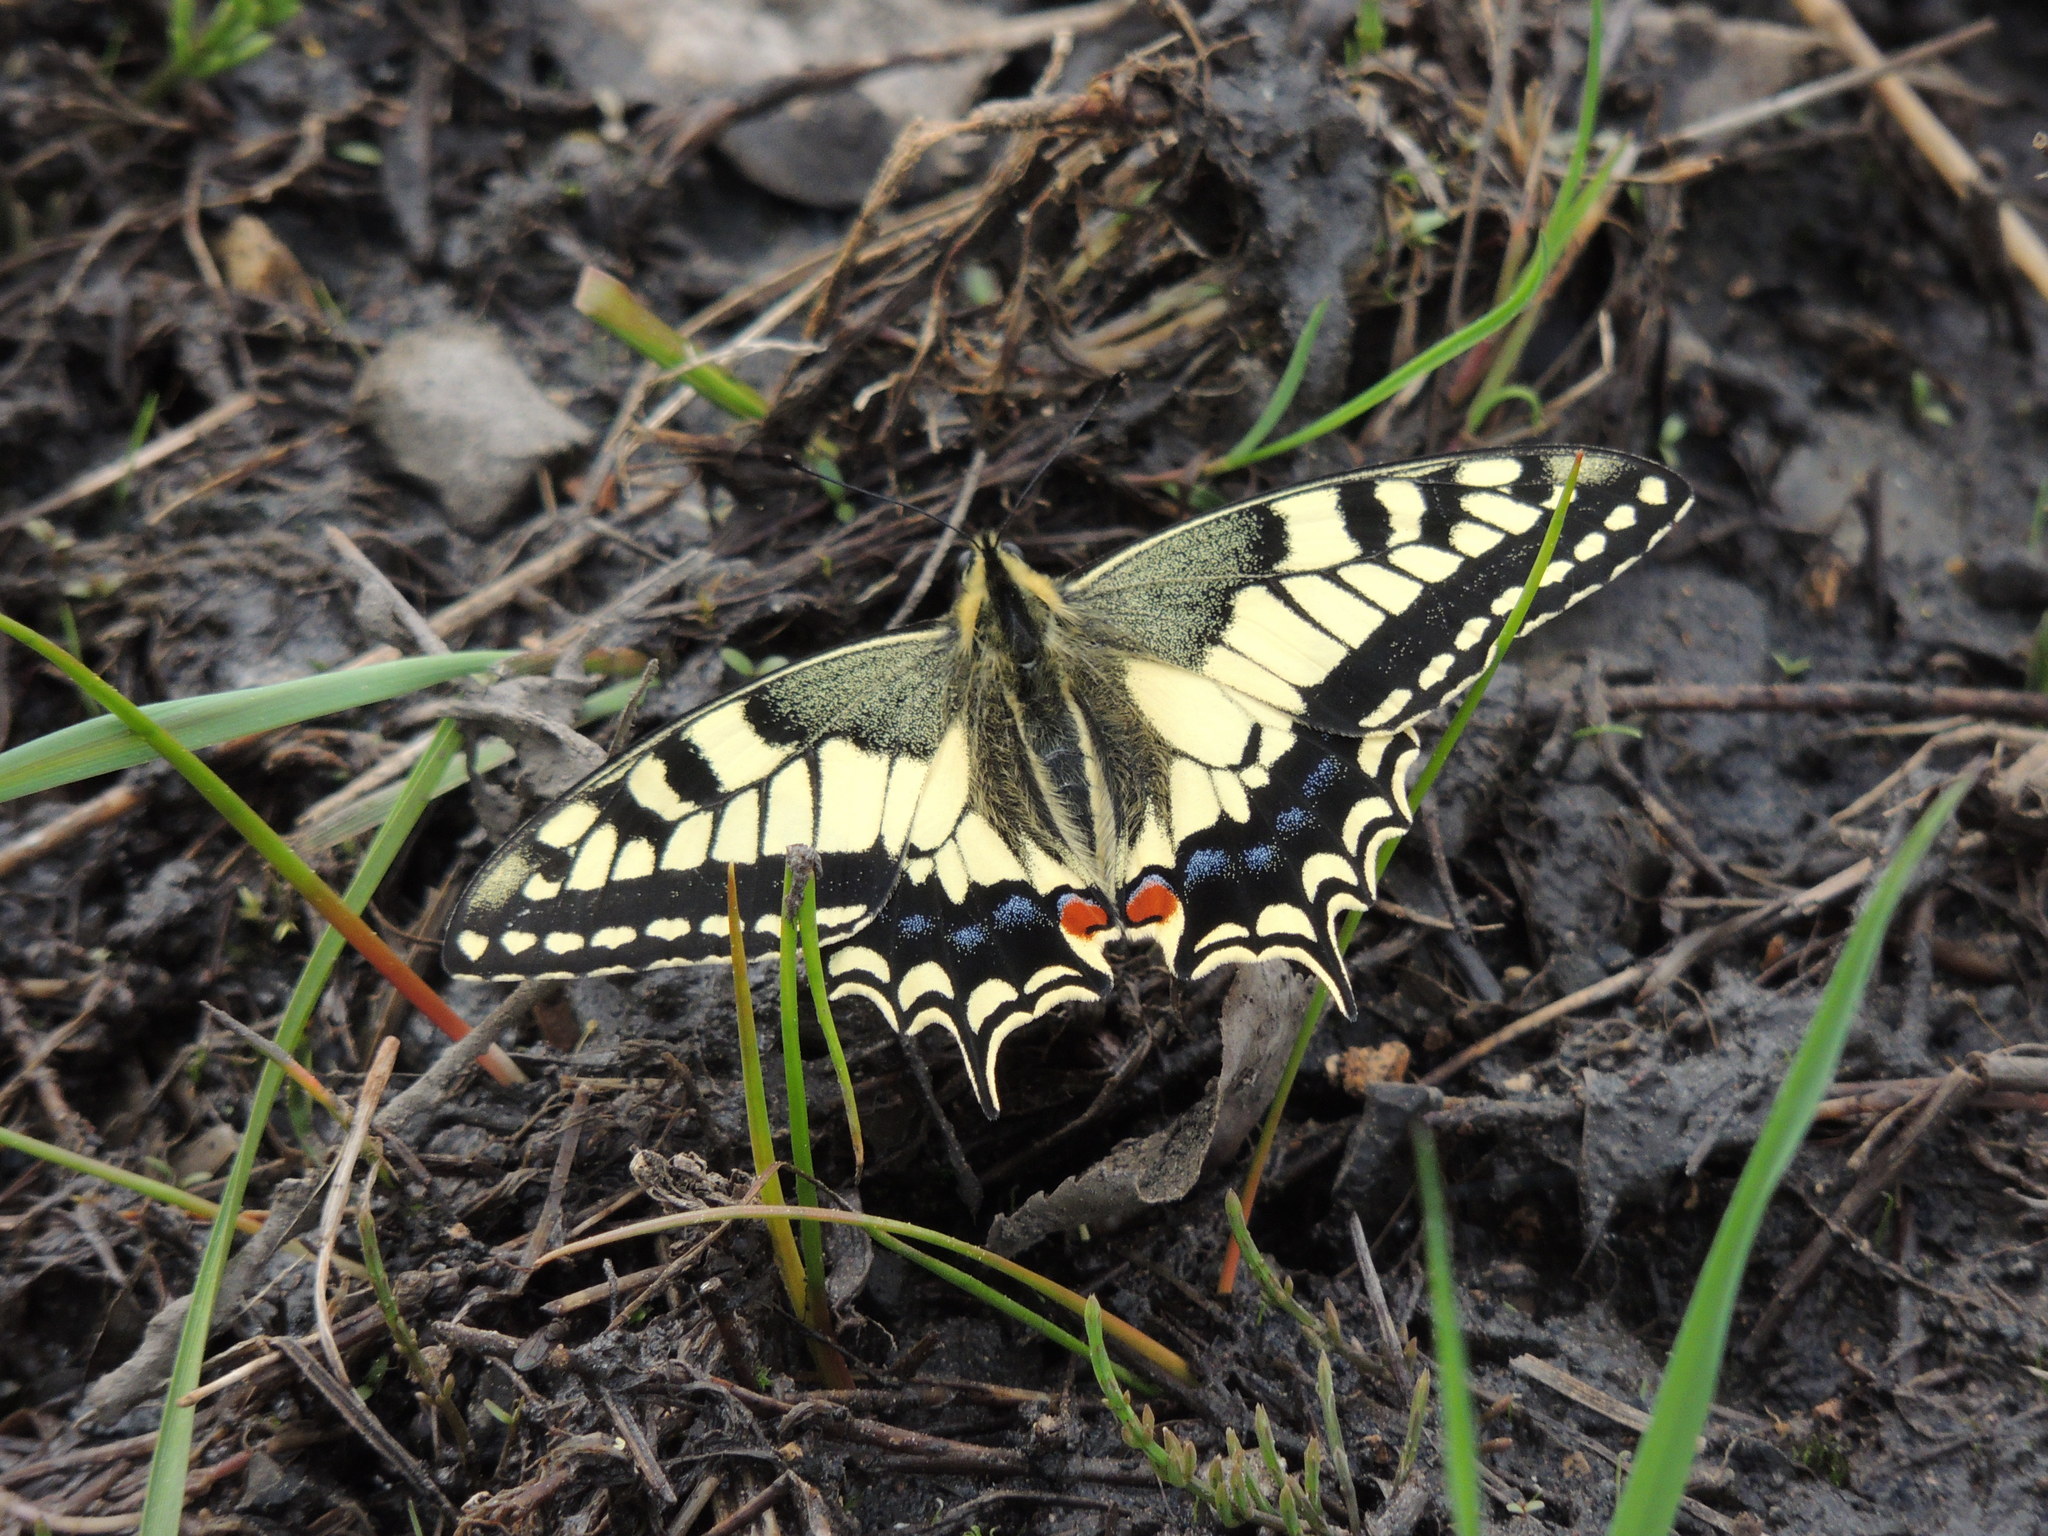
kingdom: Animalia
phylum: Arthropoda
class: Insecta
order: Lepidoptera
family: Papilionidae
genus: Papilio
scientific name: Papilio machaon
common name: Swallowtail
